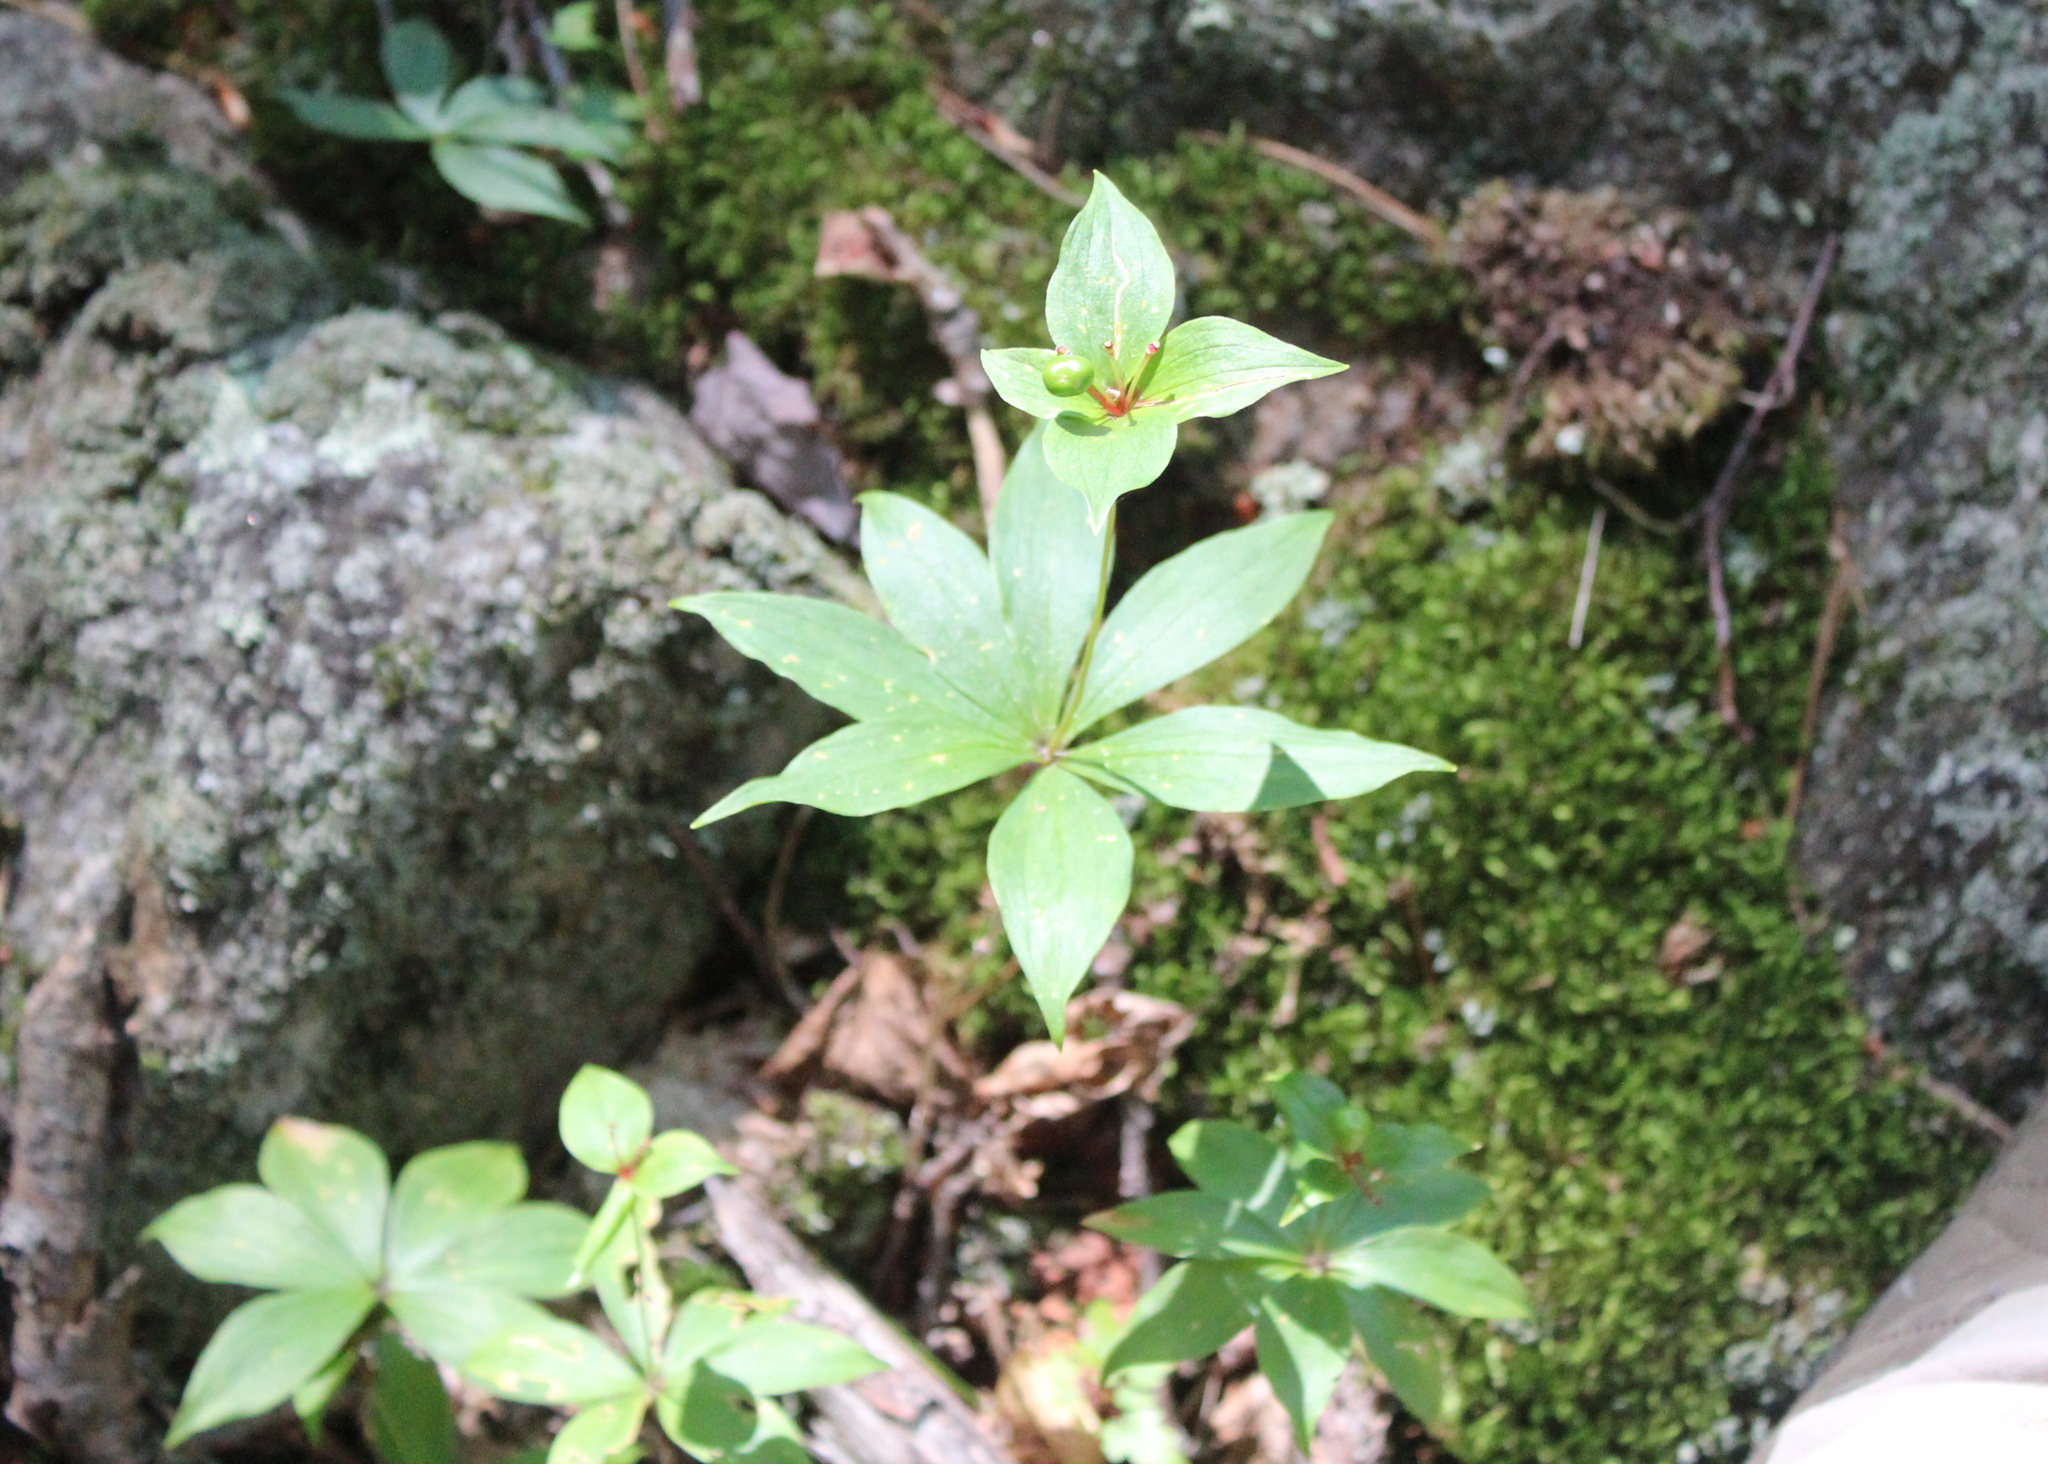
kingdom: Plantae
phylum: Tracheophyta
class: Liliopsida
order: Liliales
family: Liliaceae
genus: Medeola
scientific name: Medeola virginiana
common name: Indian cucumber-root
